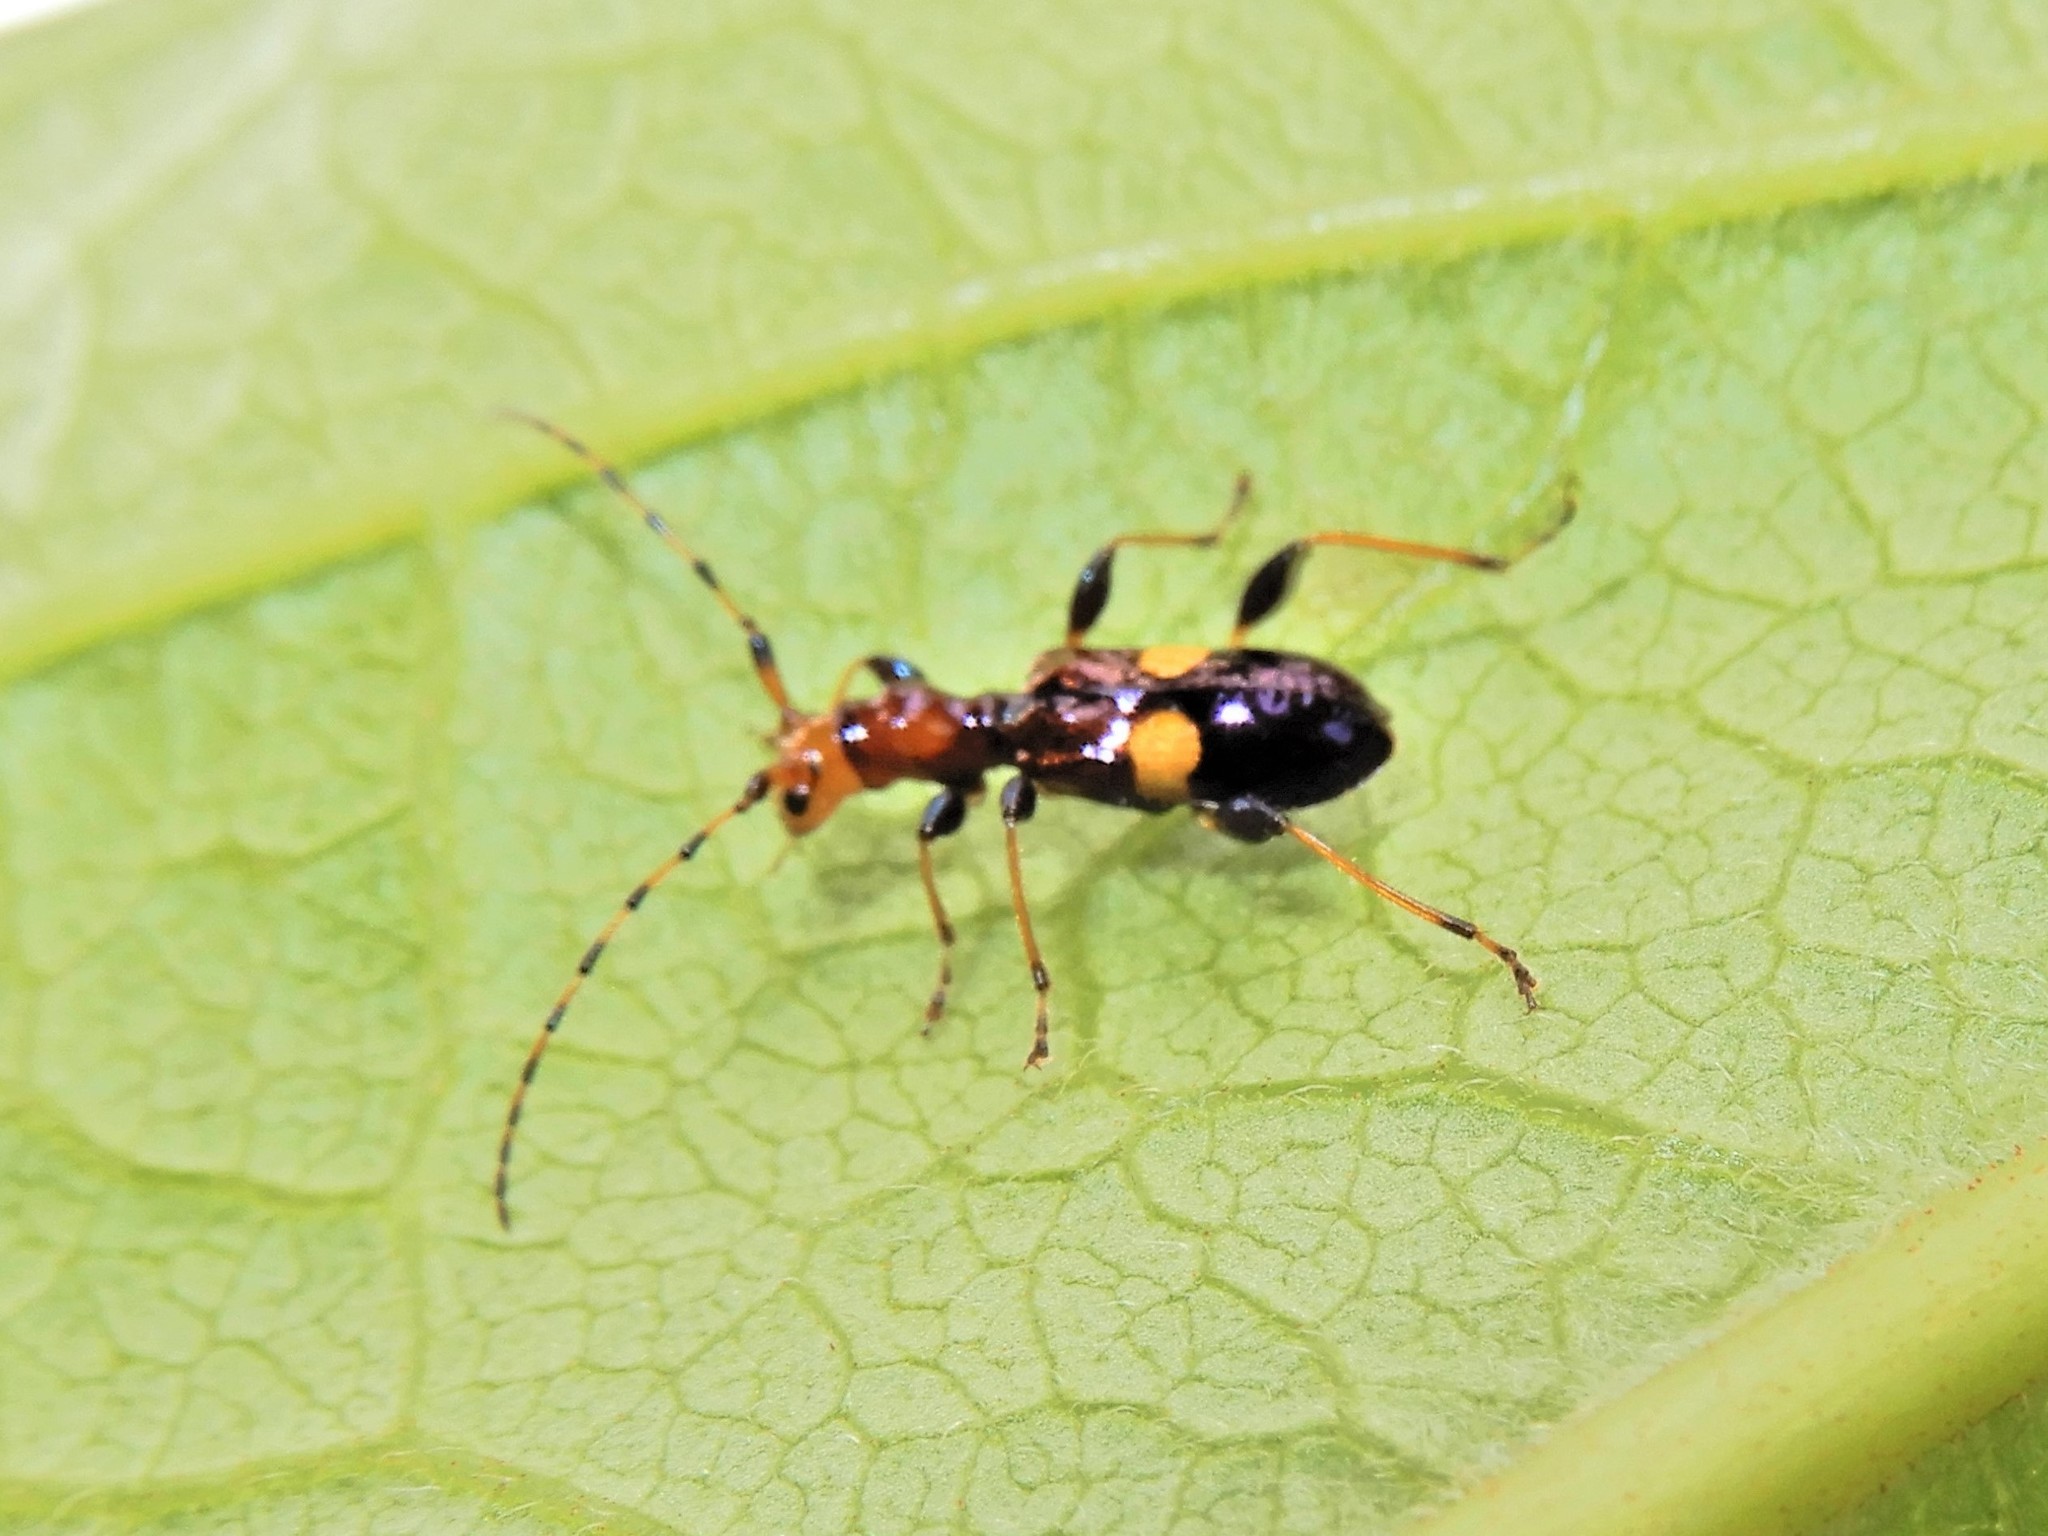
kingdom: Animalia
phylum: Arthropoda
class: Insecta
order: Coleoptera
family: Cerambycidae
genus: Zorion
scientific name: Zorion guttigerum
